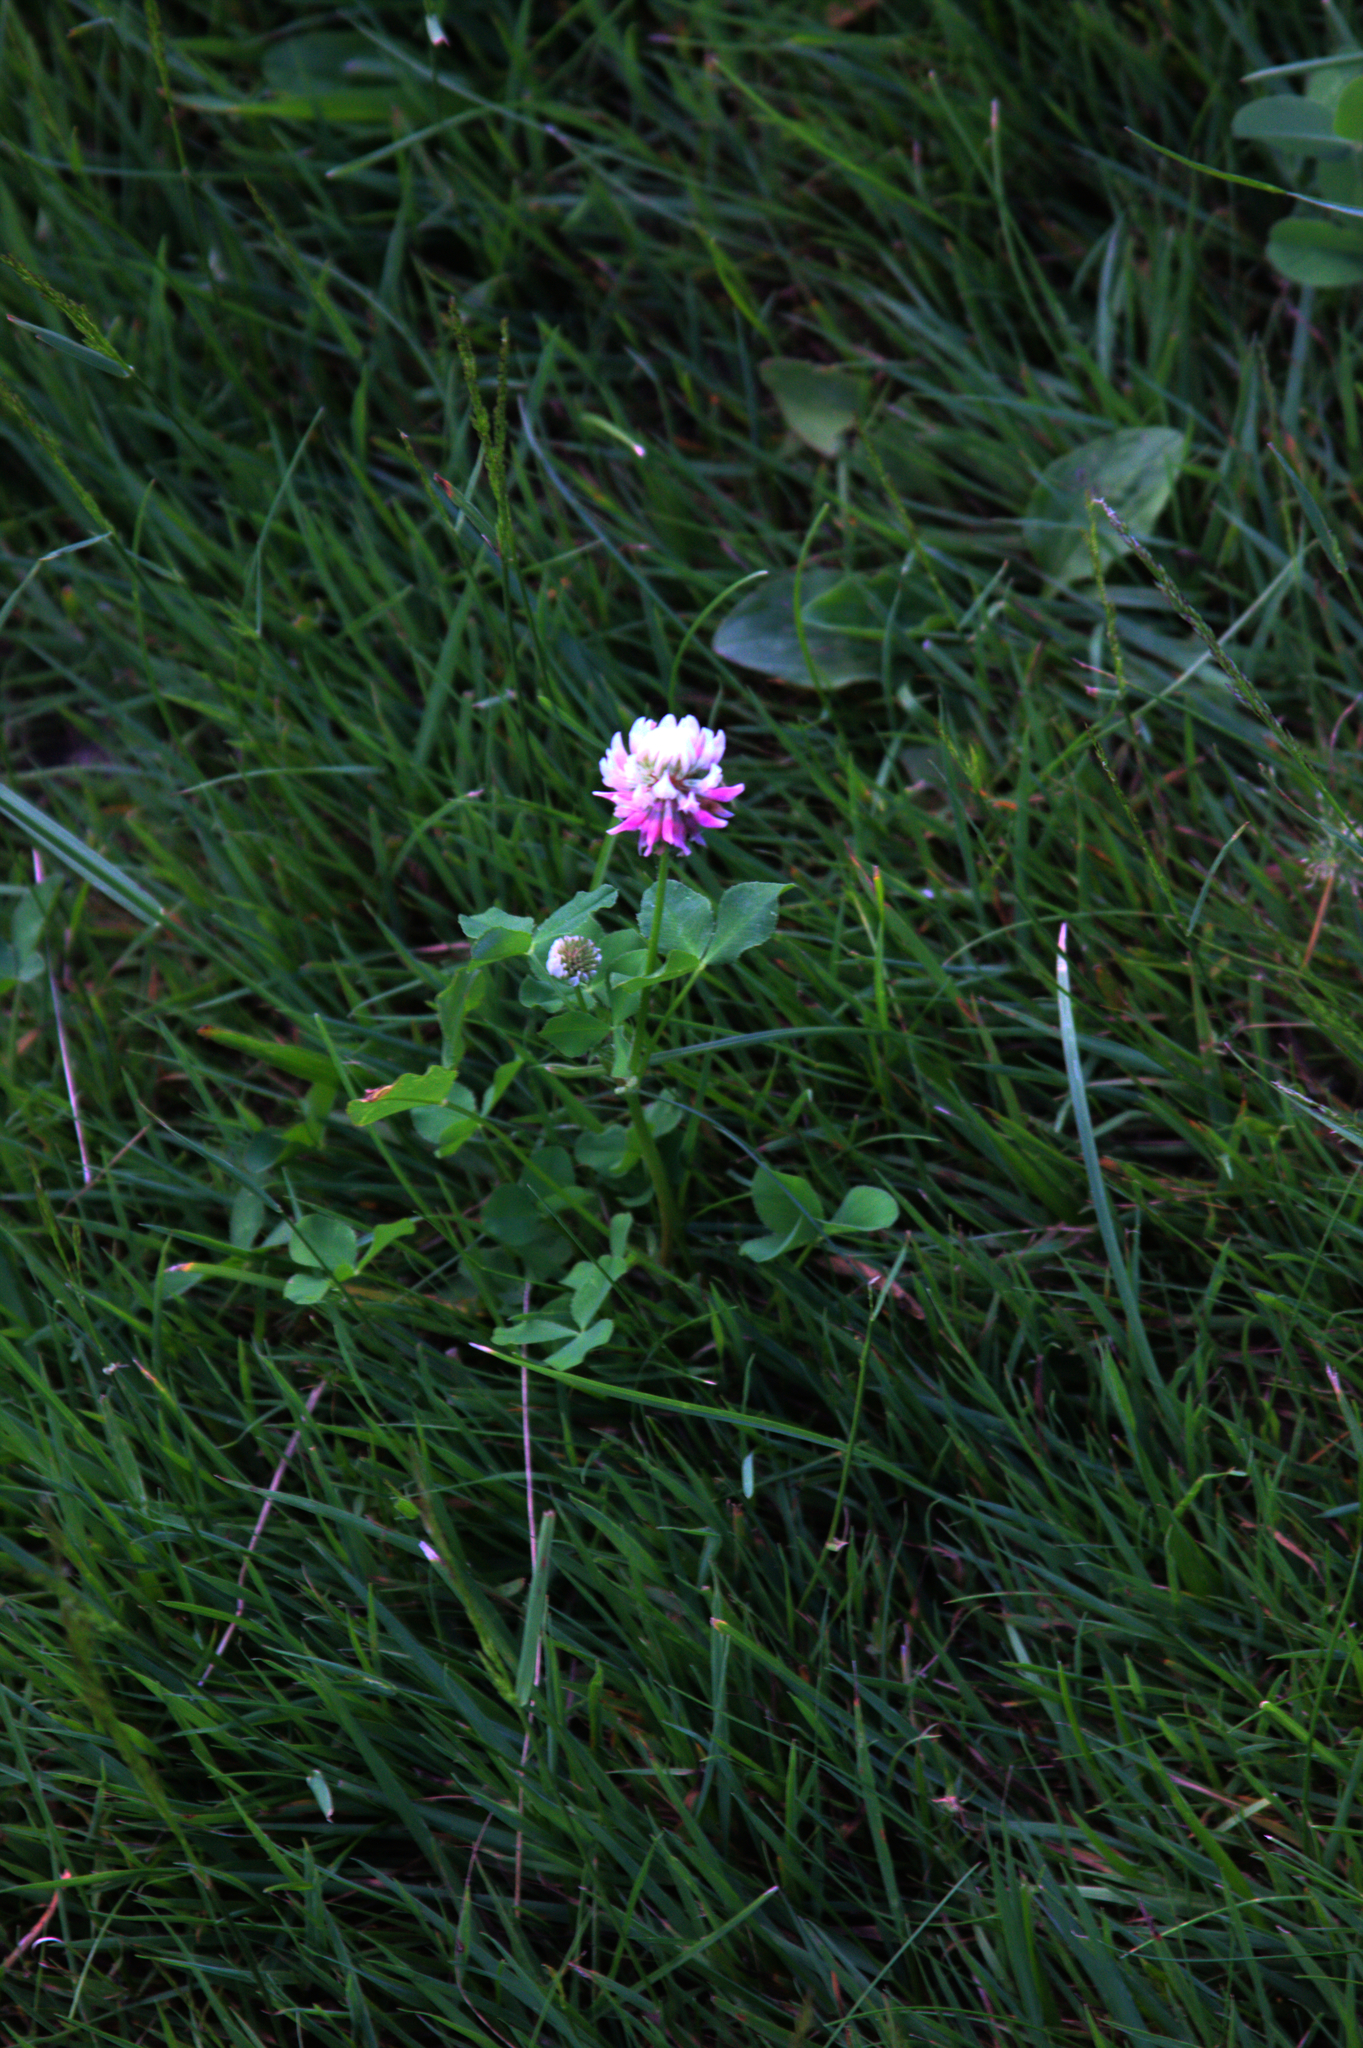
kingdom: Plantae
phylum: Tracheophyta
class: Magnoliopsida
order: Fabales
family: Fabaceae
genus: Trifolium
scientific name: Trifolium hybridum
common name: Alsike clover
